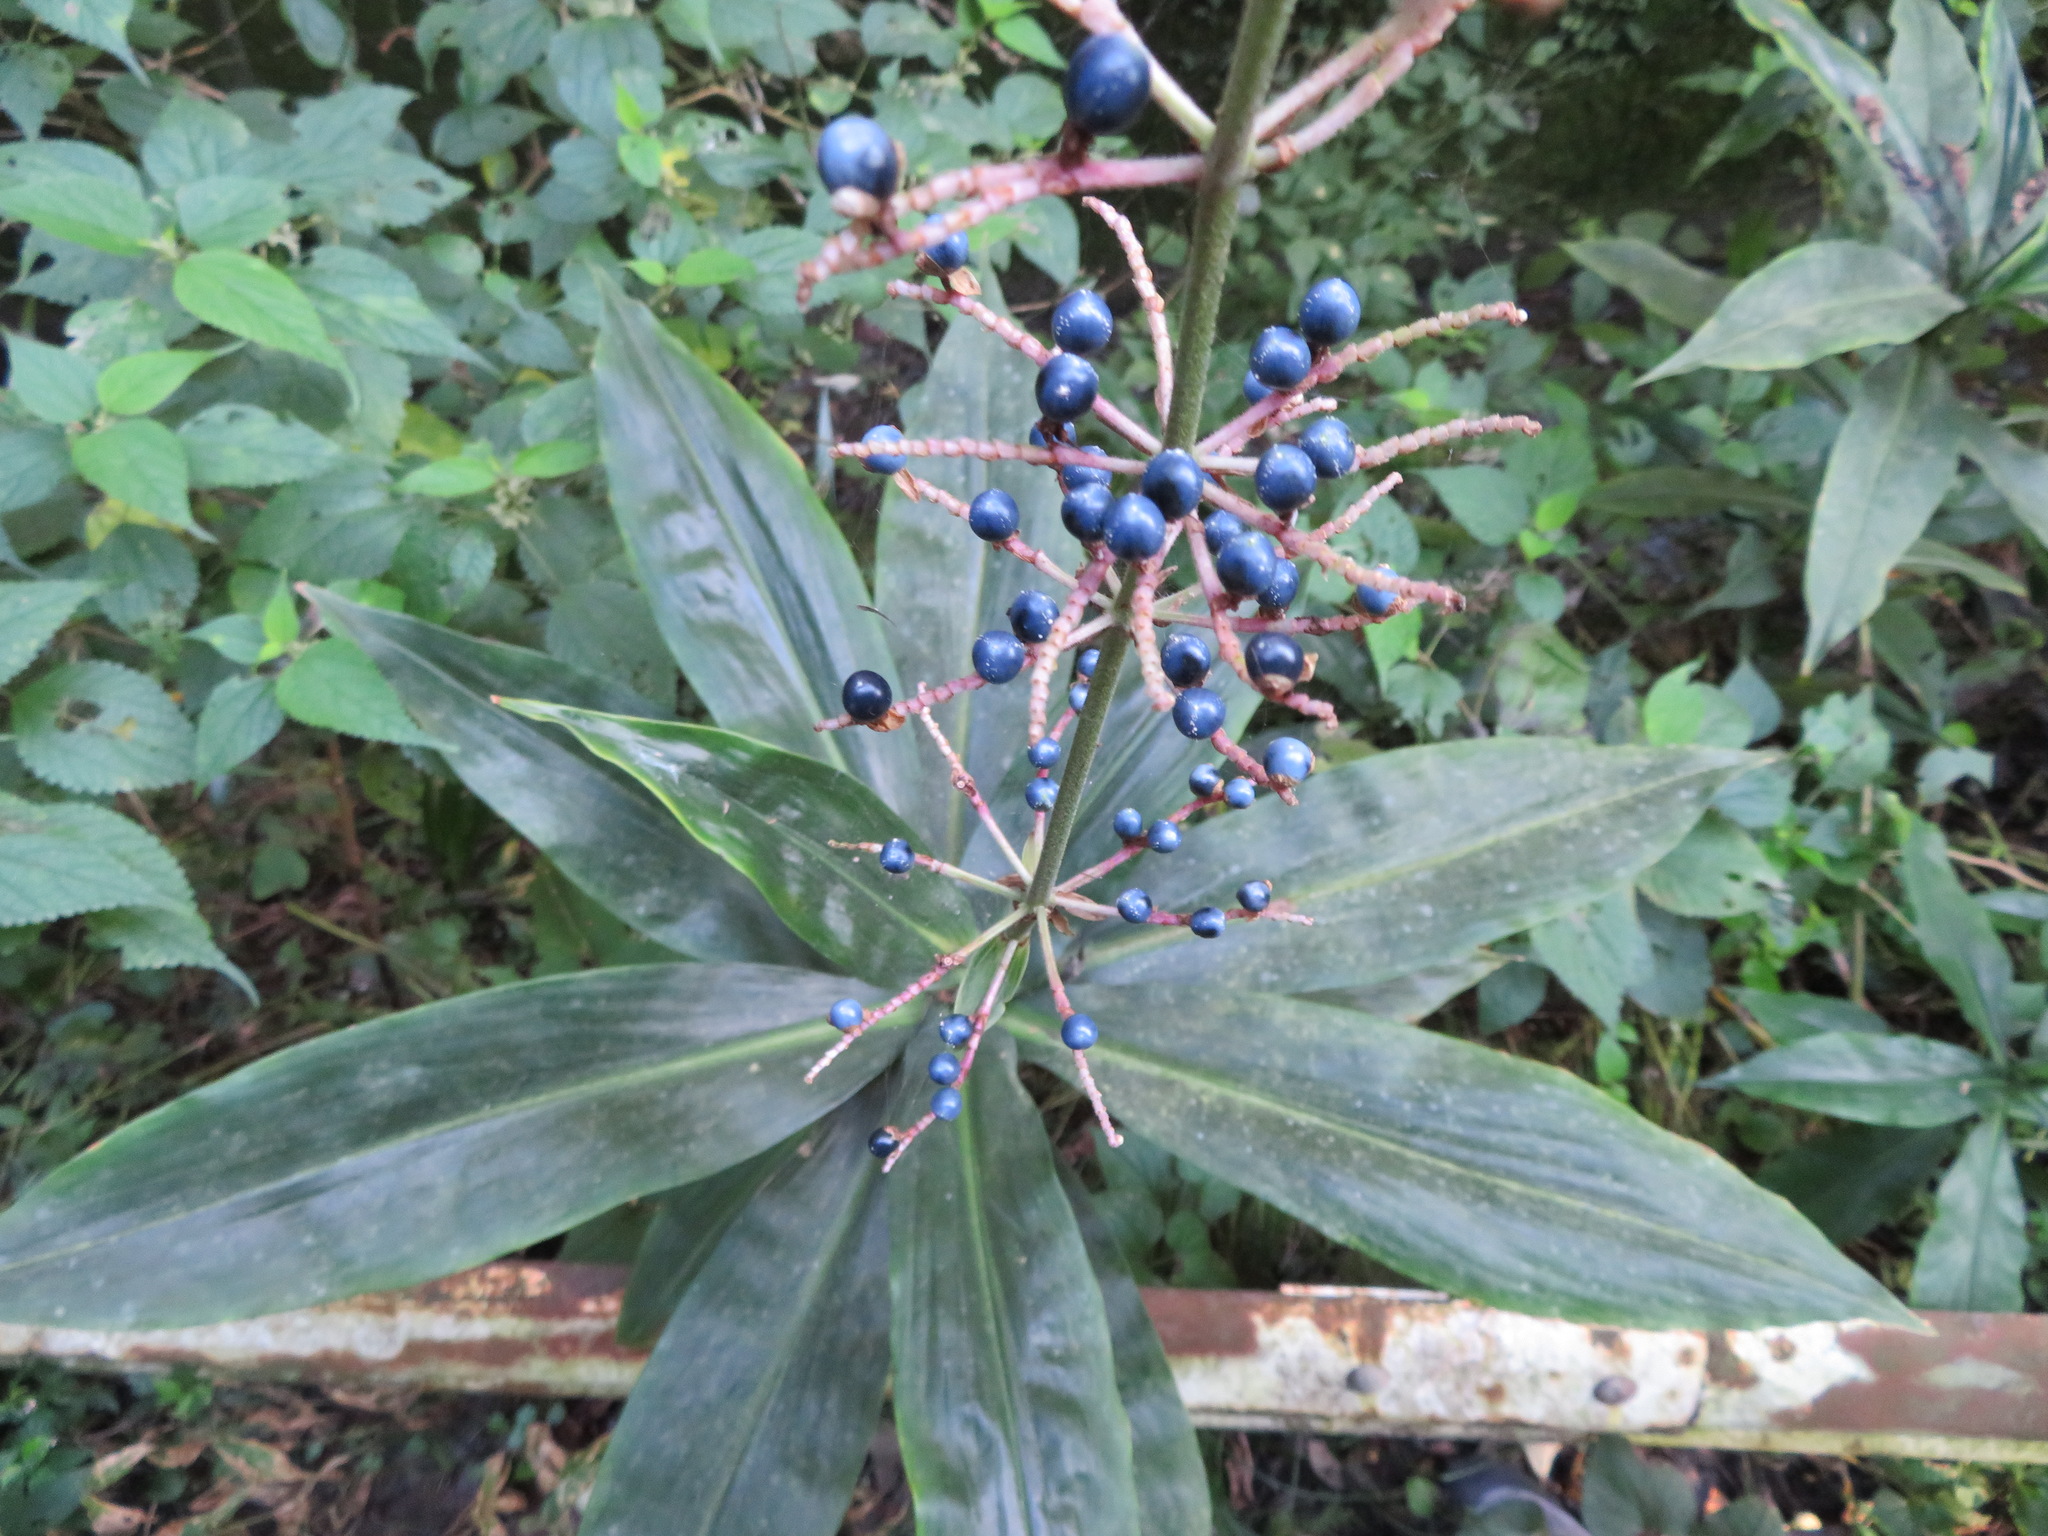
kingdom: Plantae
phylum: Tracheophyta
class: Liliopsida
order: Commelinales
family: Commelinaceae
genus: Pollia
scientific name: Pollia japonica
